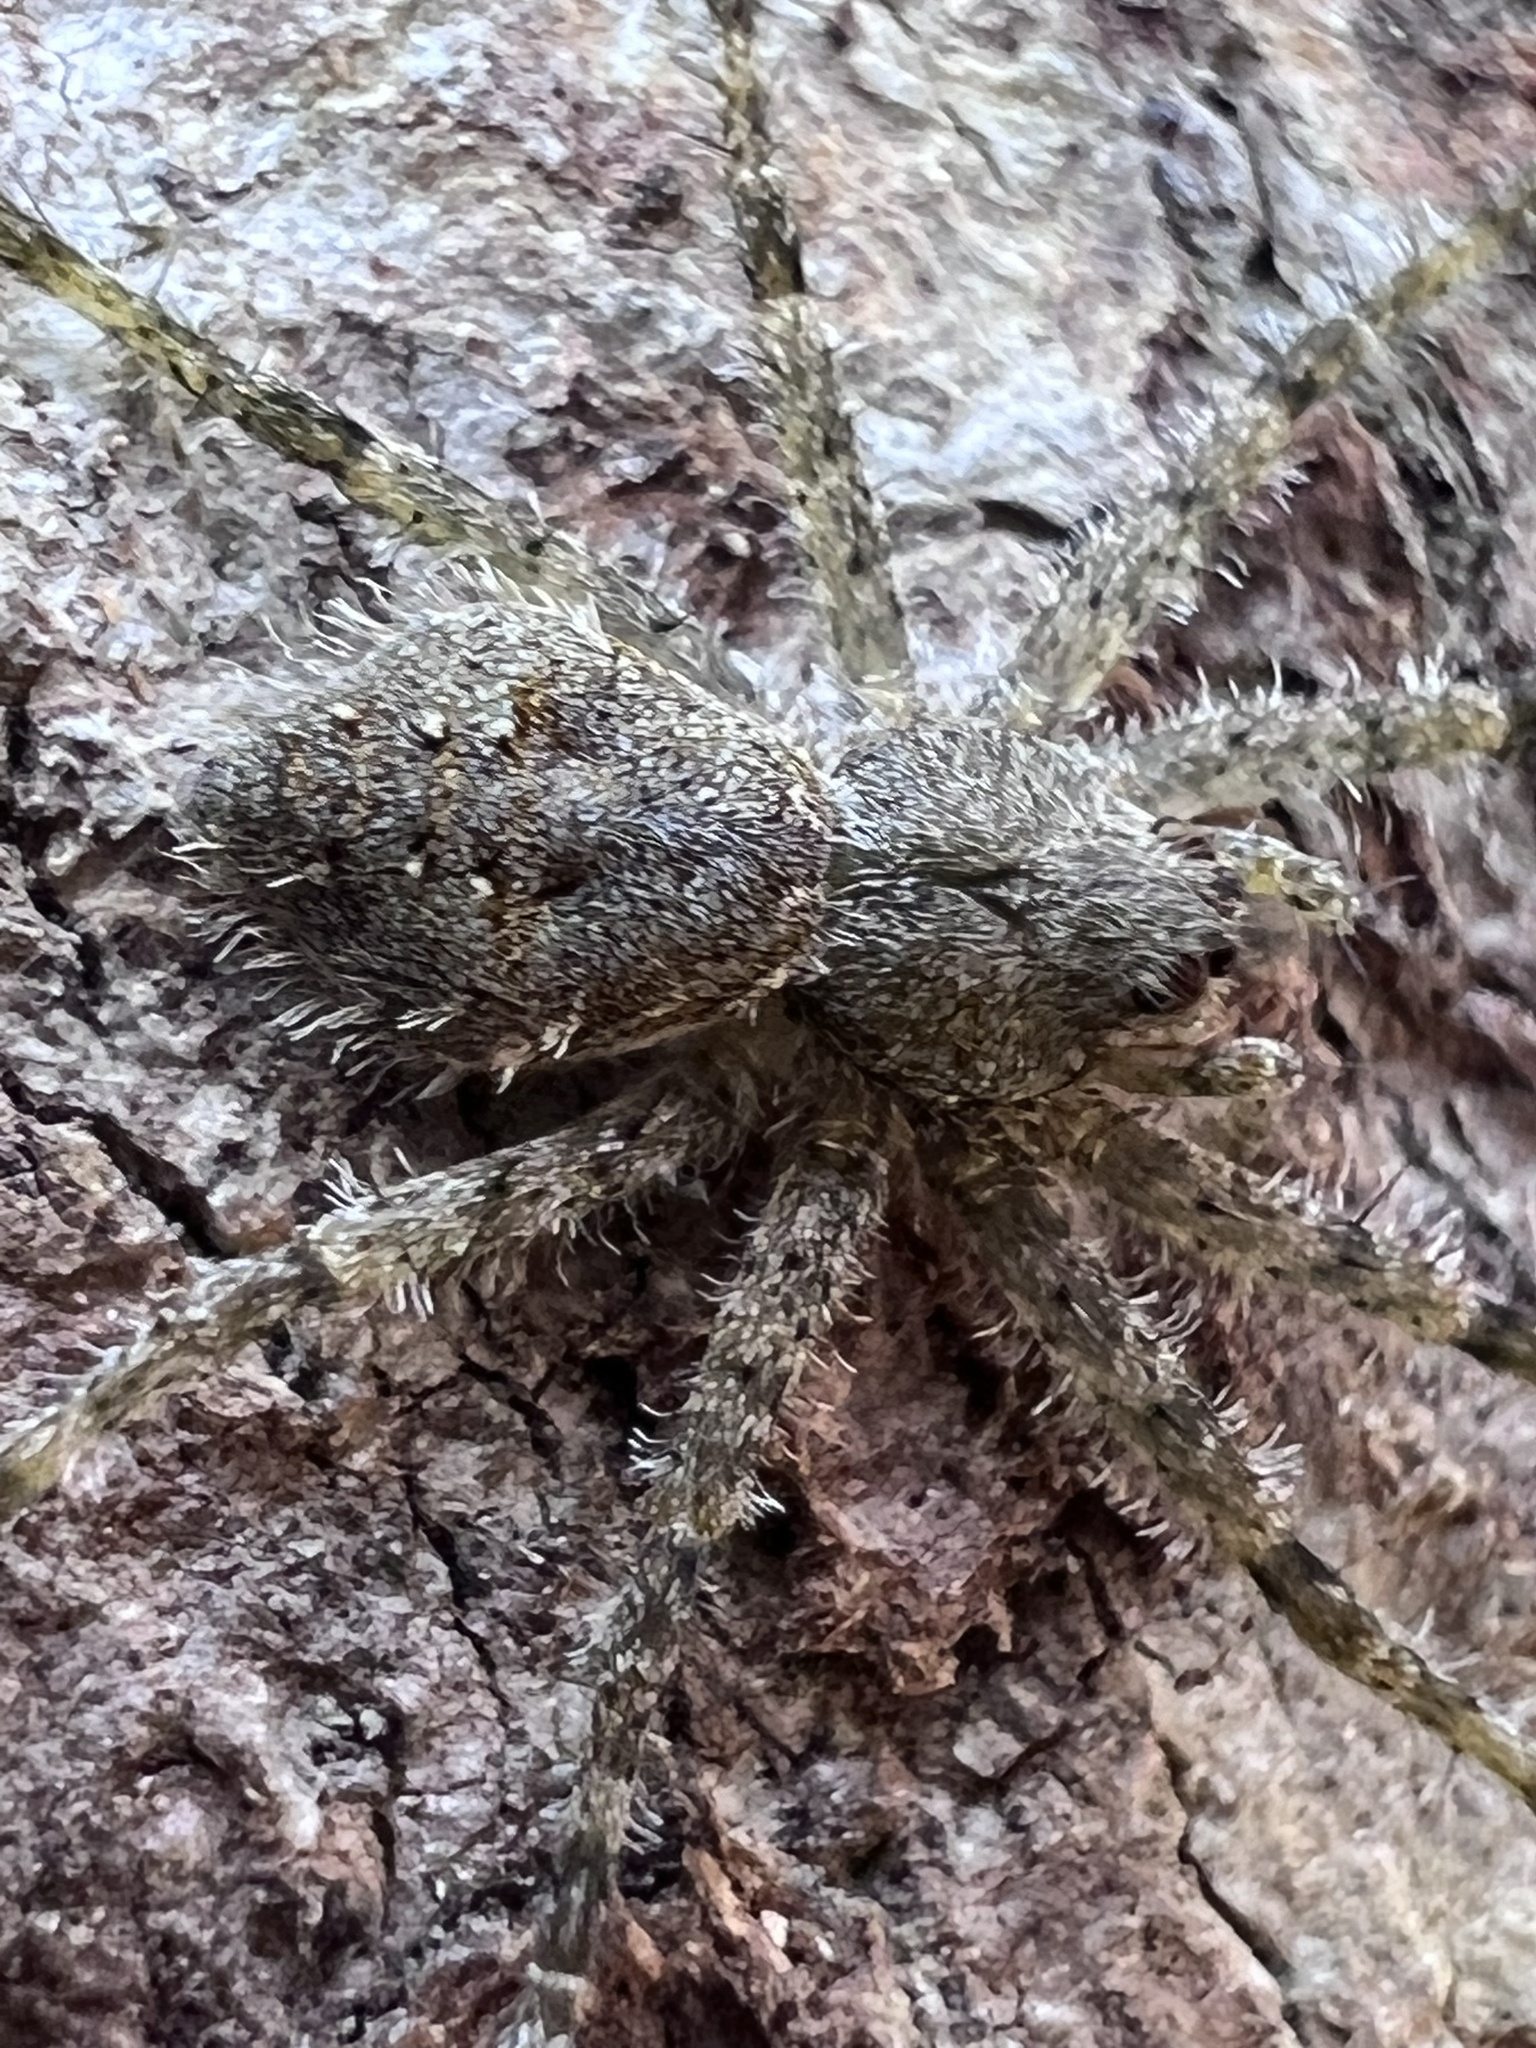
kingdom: Animalia
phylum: Arthropoda
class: Arachnida
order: Araneae
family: Pisauridae
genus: Dolomedes
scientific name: Dolomedes albineus
